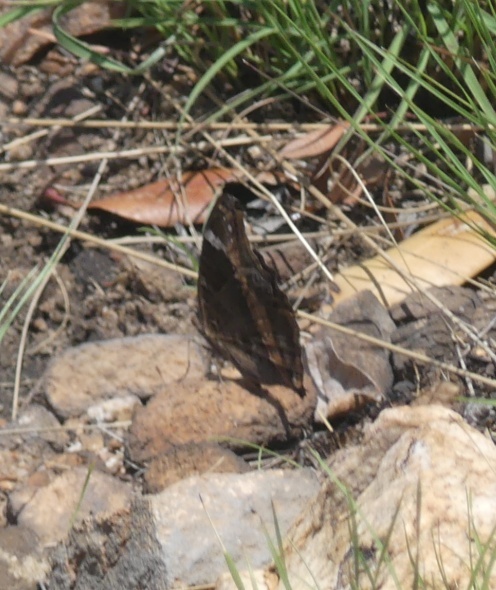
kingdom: Animalia
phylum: Arthropoda
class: Insecta
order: Lepidoptera
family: Nymphalidae
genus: Junonia
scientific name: Junonia archesia
